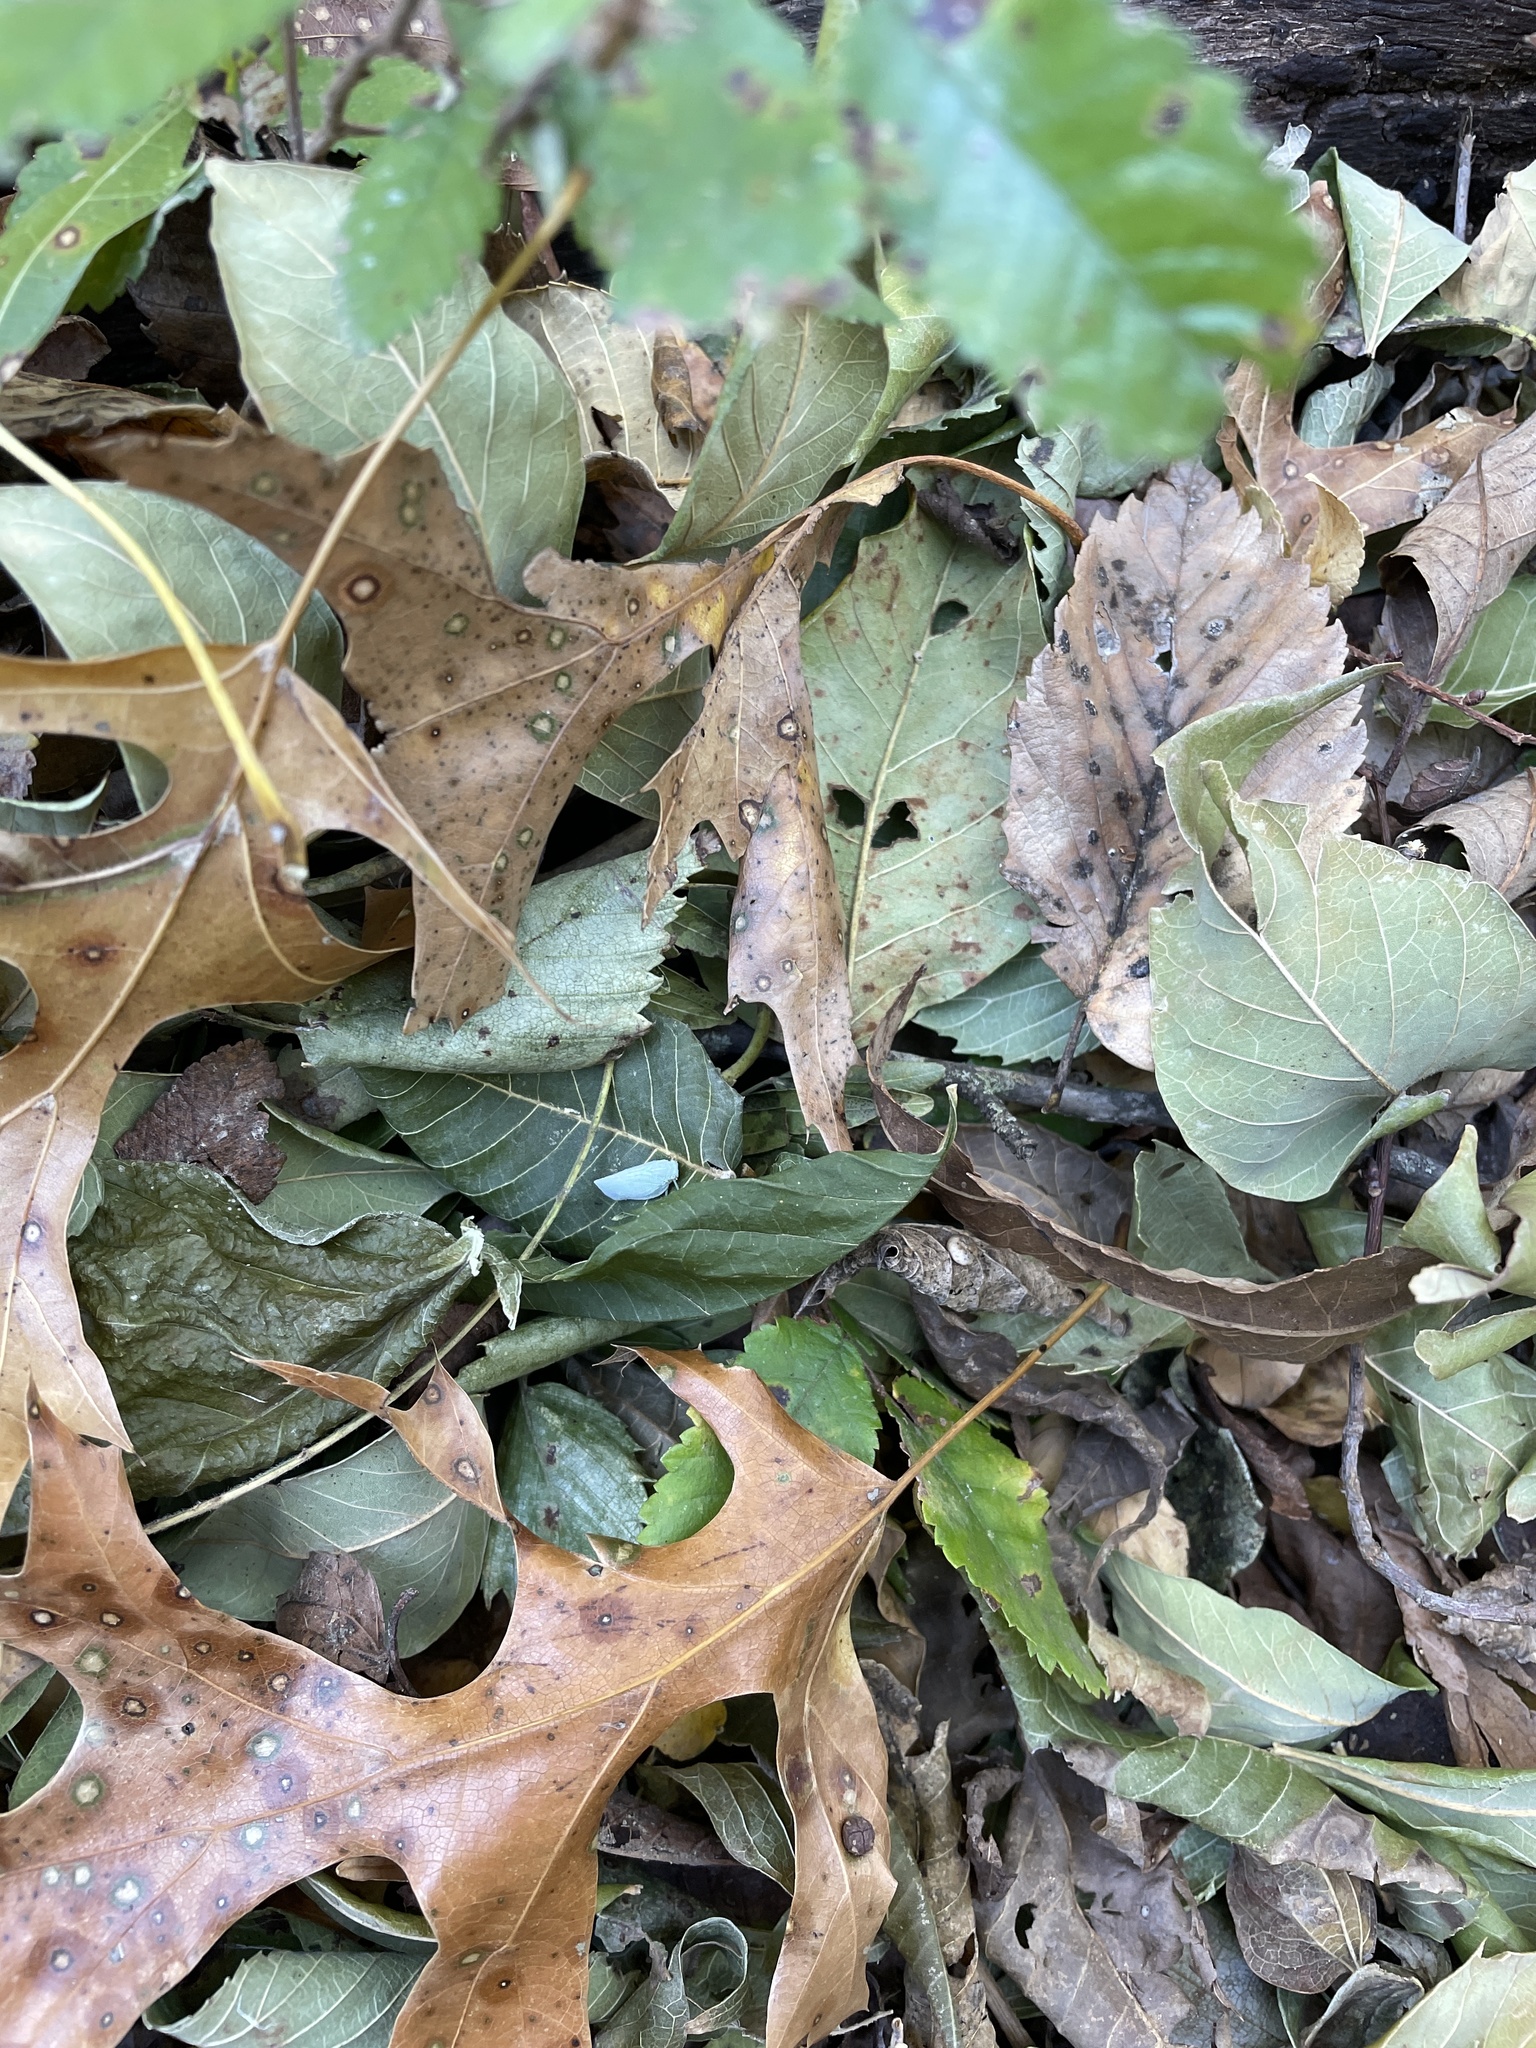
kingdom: Animalia
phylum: Arthropoda
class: Insecta
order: Hemiptera
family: Flatidae
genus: Flatormenis
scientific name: Flatormenis proxima
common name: Northern flatid planthopper
